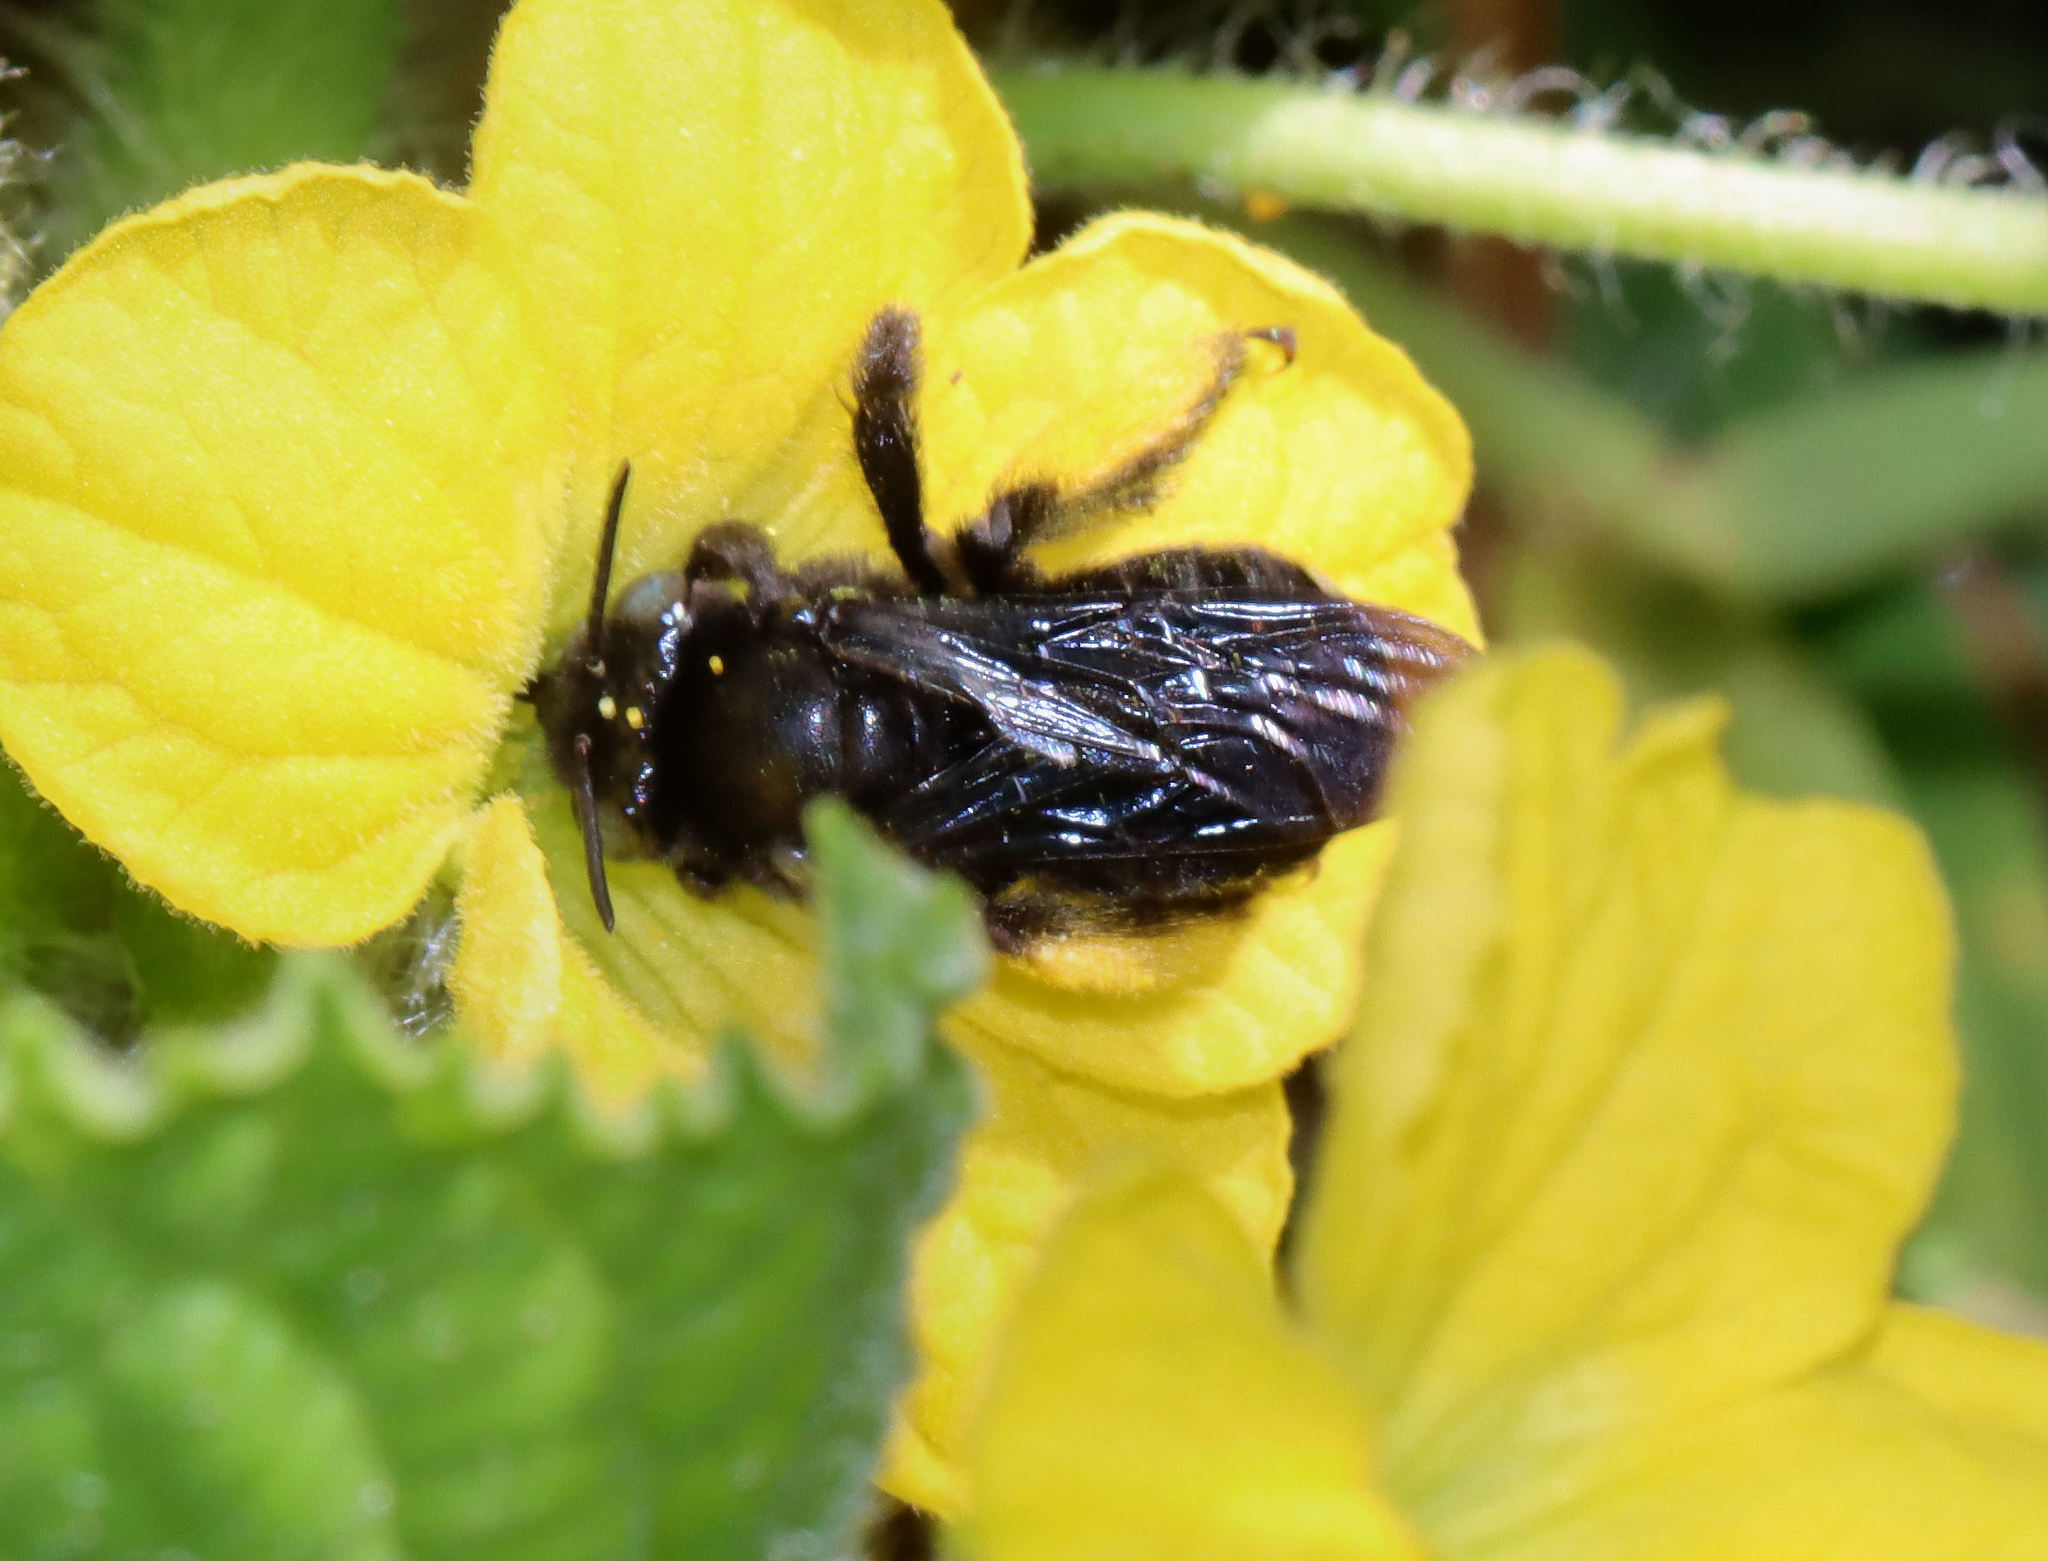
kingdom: Animalia
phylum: Arthropoda
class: Insecta
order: Hymenoptera
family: Apidae
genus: Melissodes
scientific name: Melissodes bimaculatus
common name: Two-spotted long-horned bee
